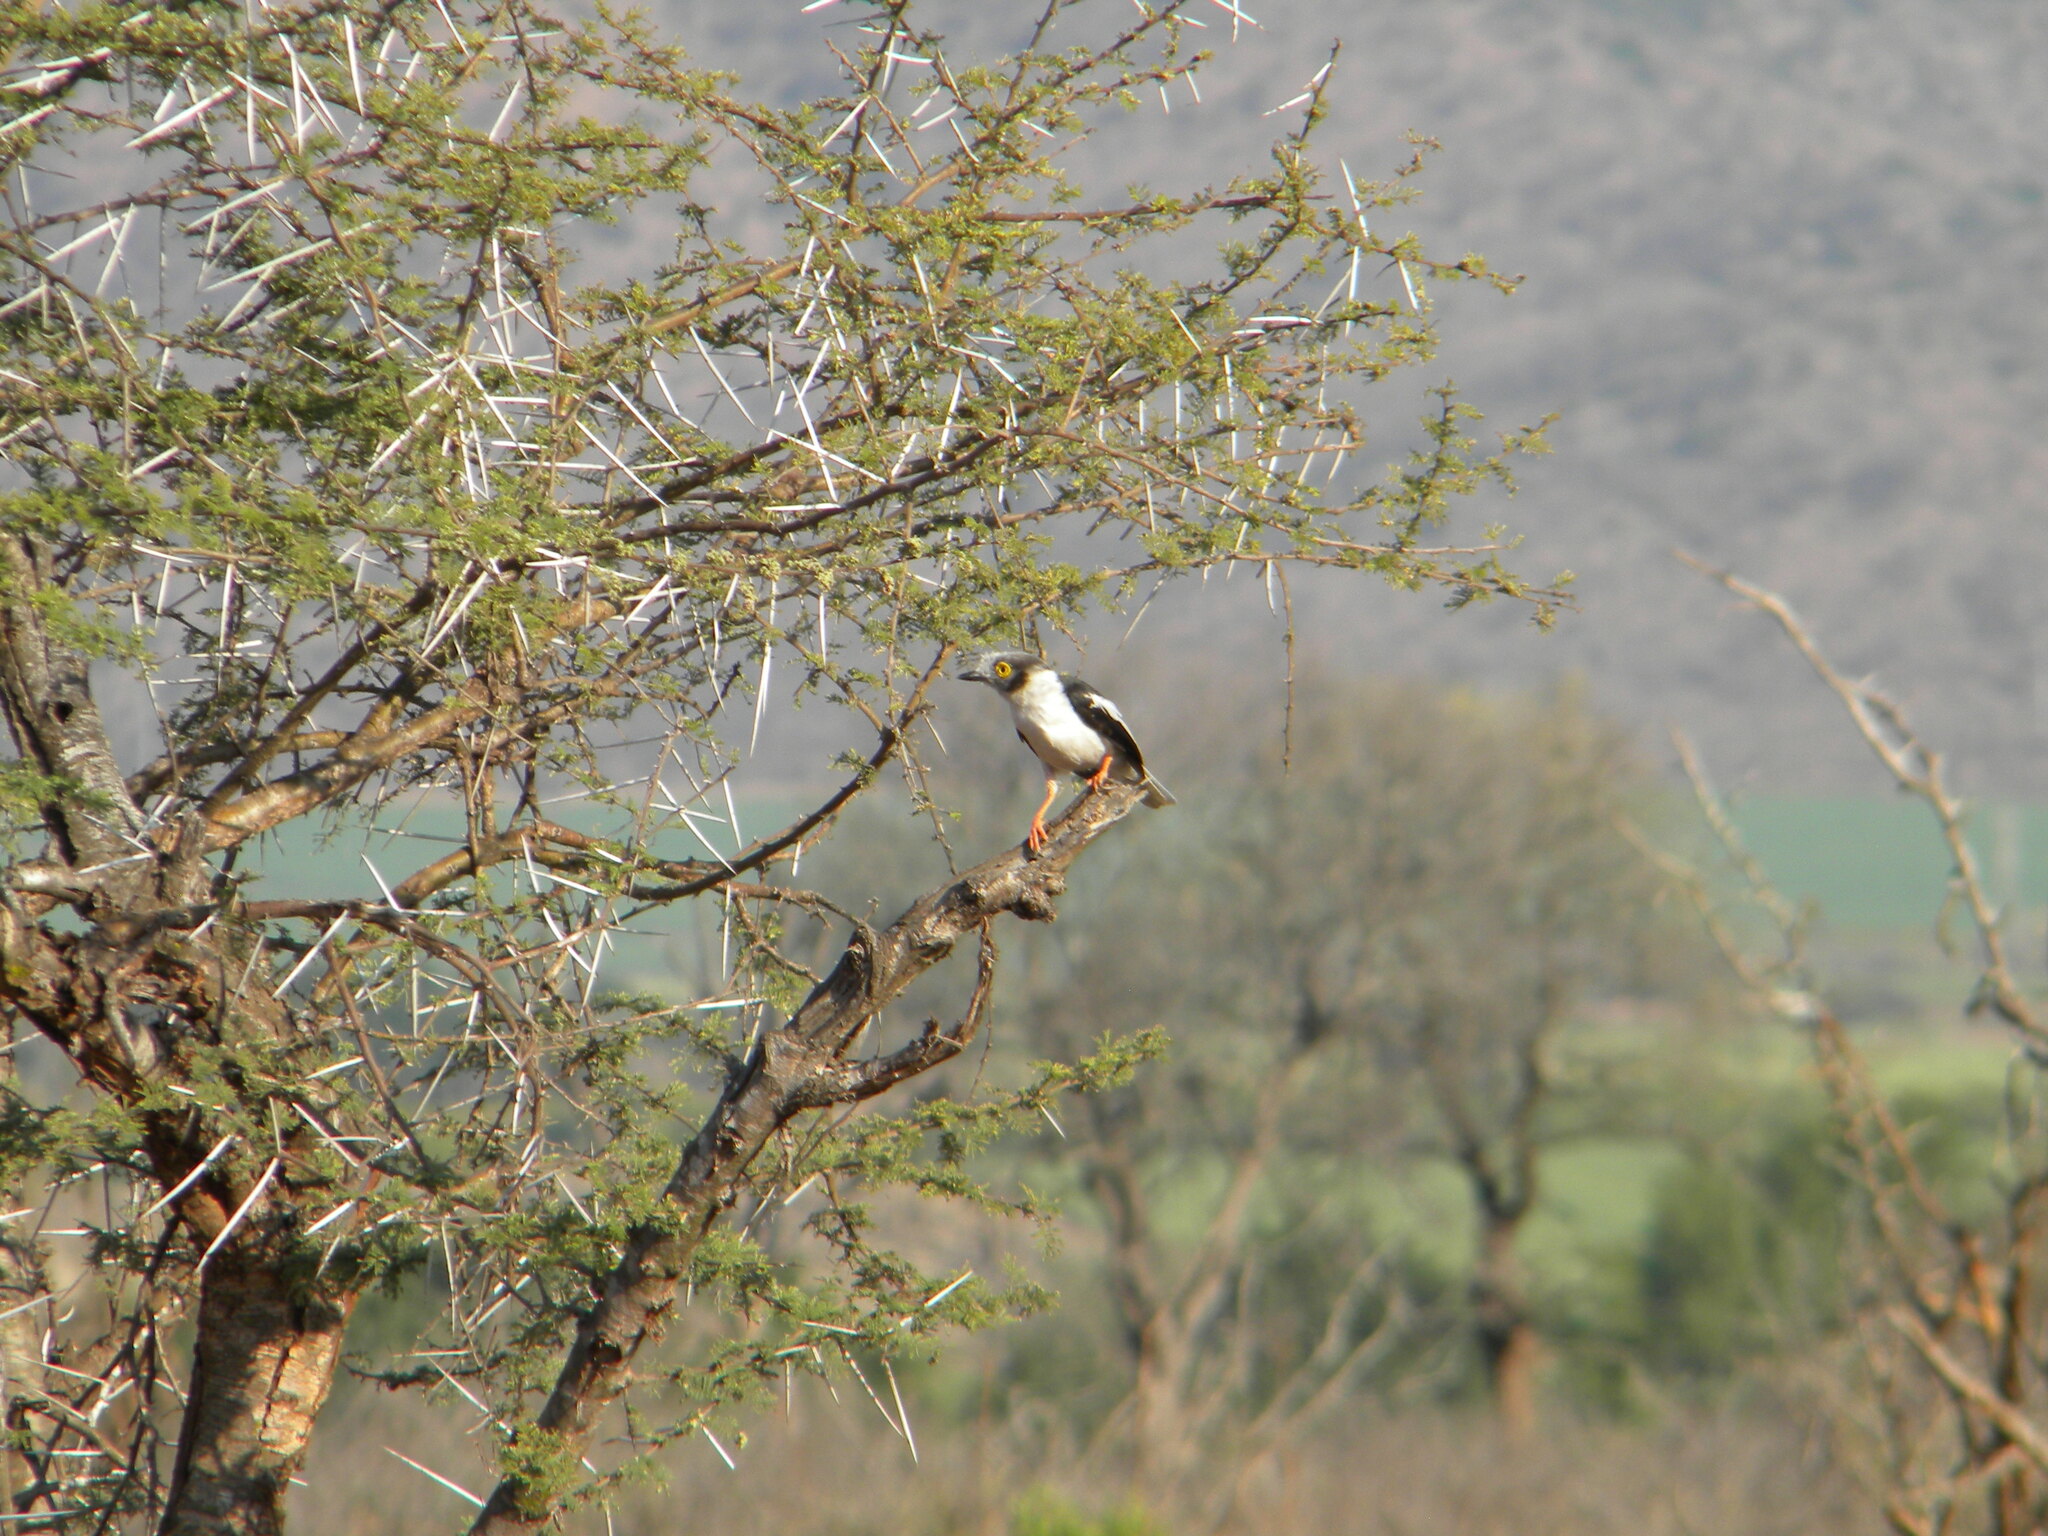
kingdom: Animalia
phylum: Chordata
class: Aves
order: Passeriformes
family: Prionopidae
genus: Prionops
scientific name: Prionops plumatus
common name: White-crested helmetshrike
